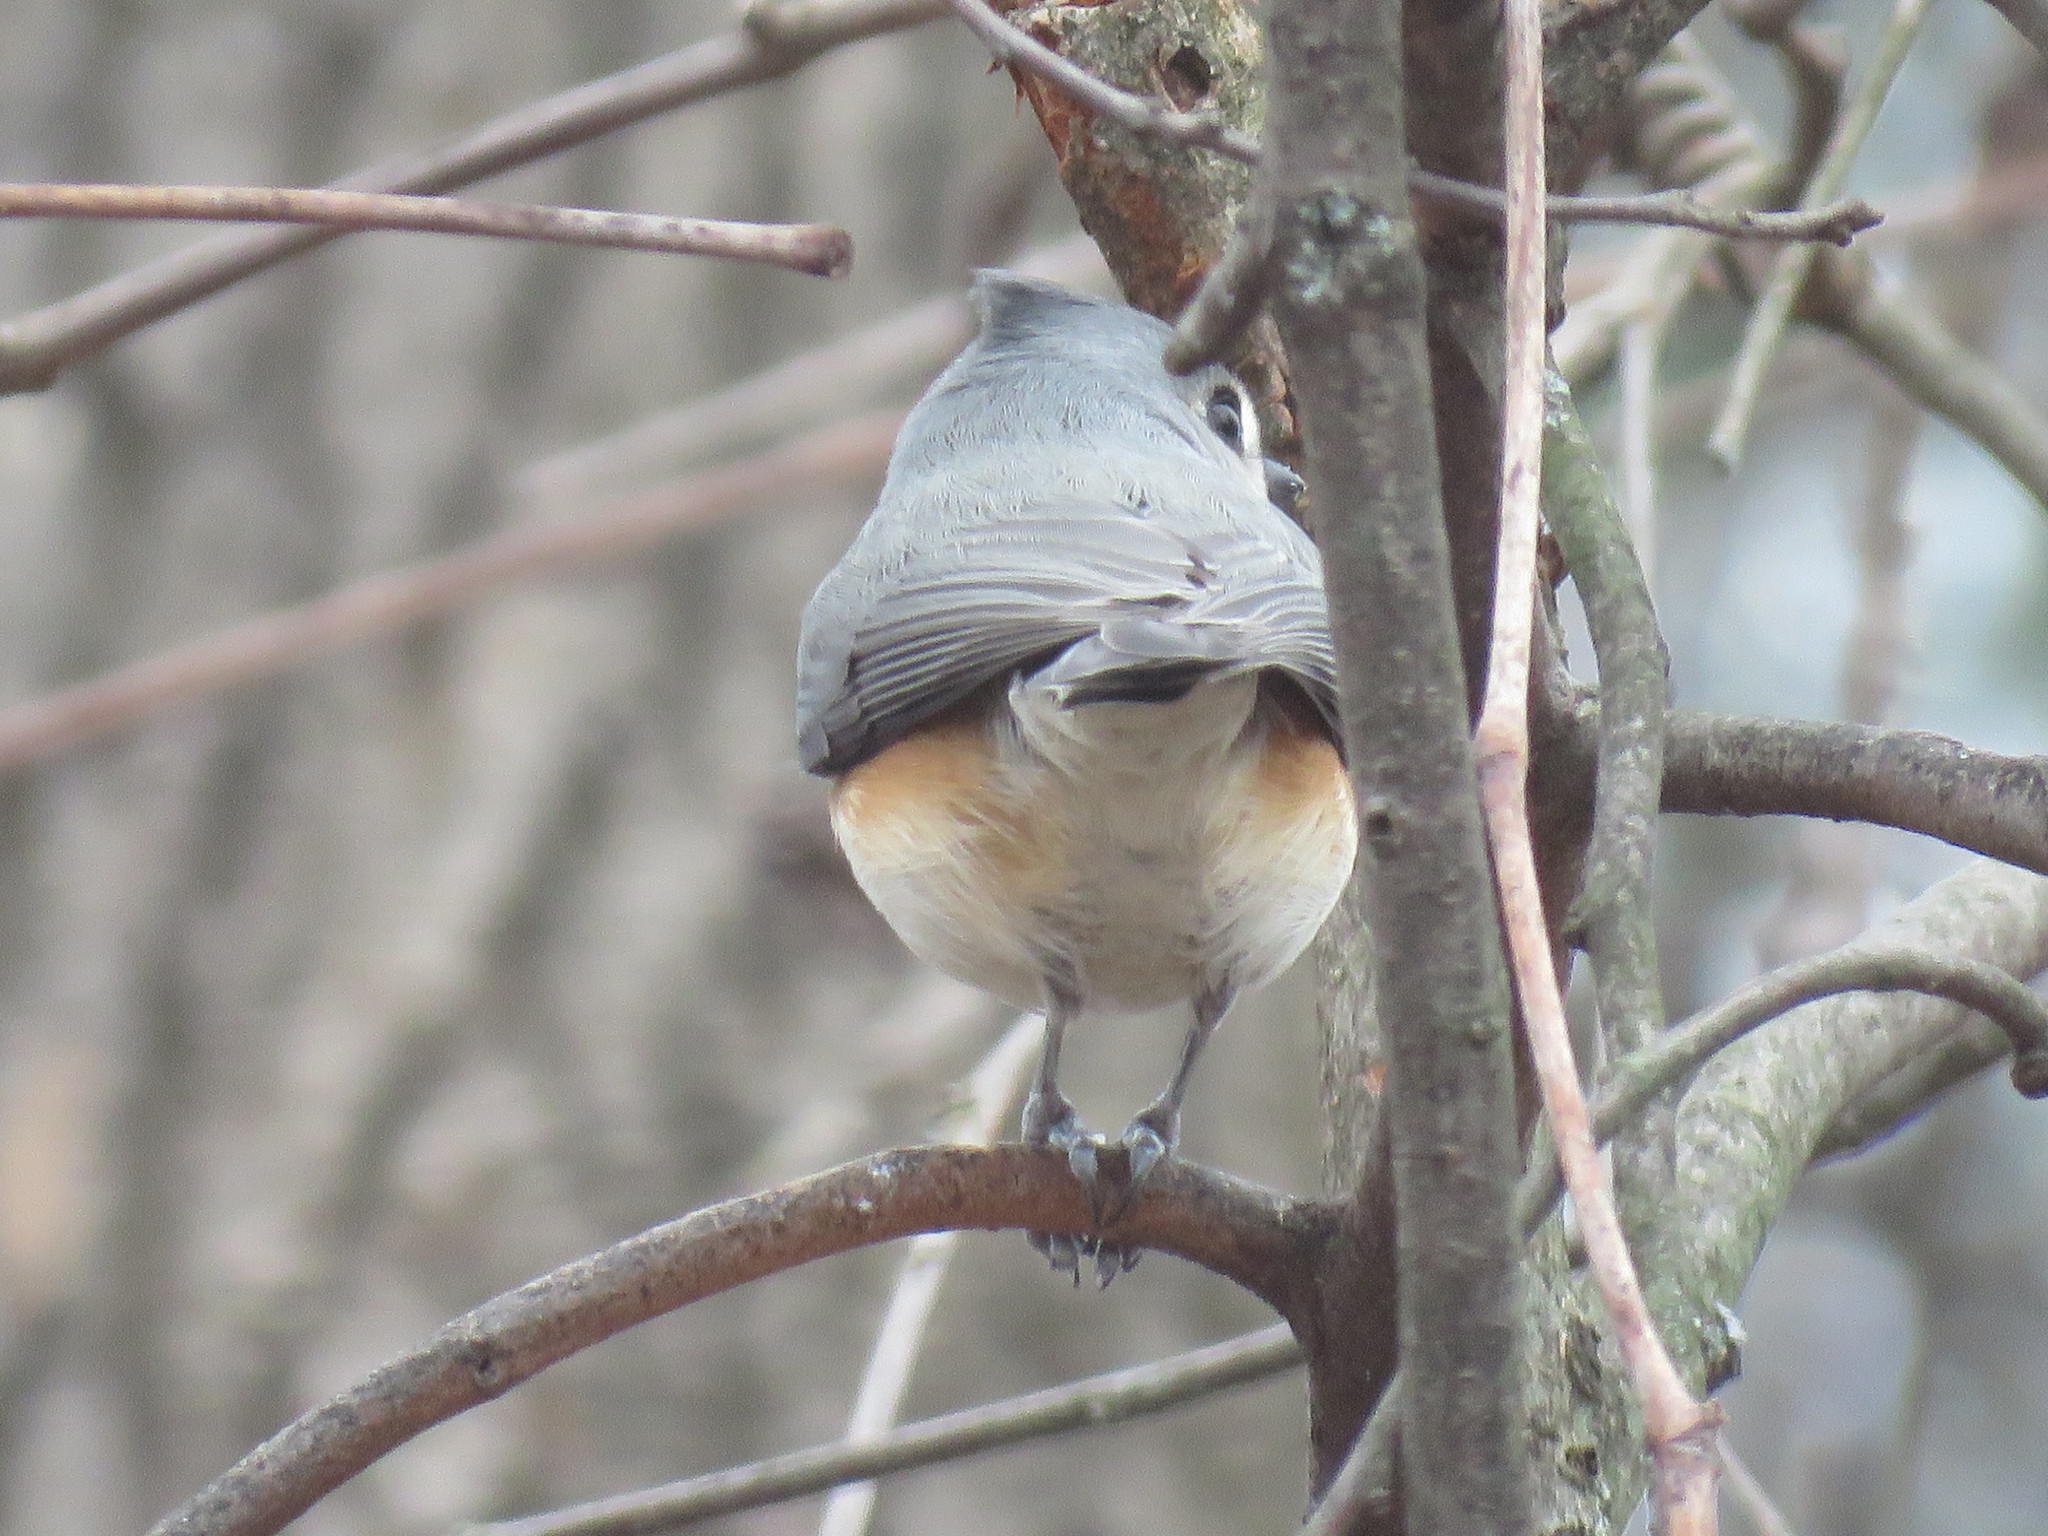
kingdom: Animalia
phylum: Chordata
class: Aves
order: Passeriformes
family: Paridae
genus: Baeolophus
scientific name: Baeolophus bicolor
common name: Tufted titmouse
